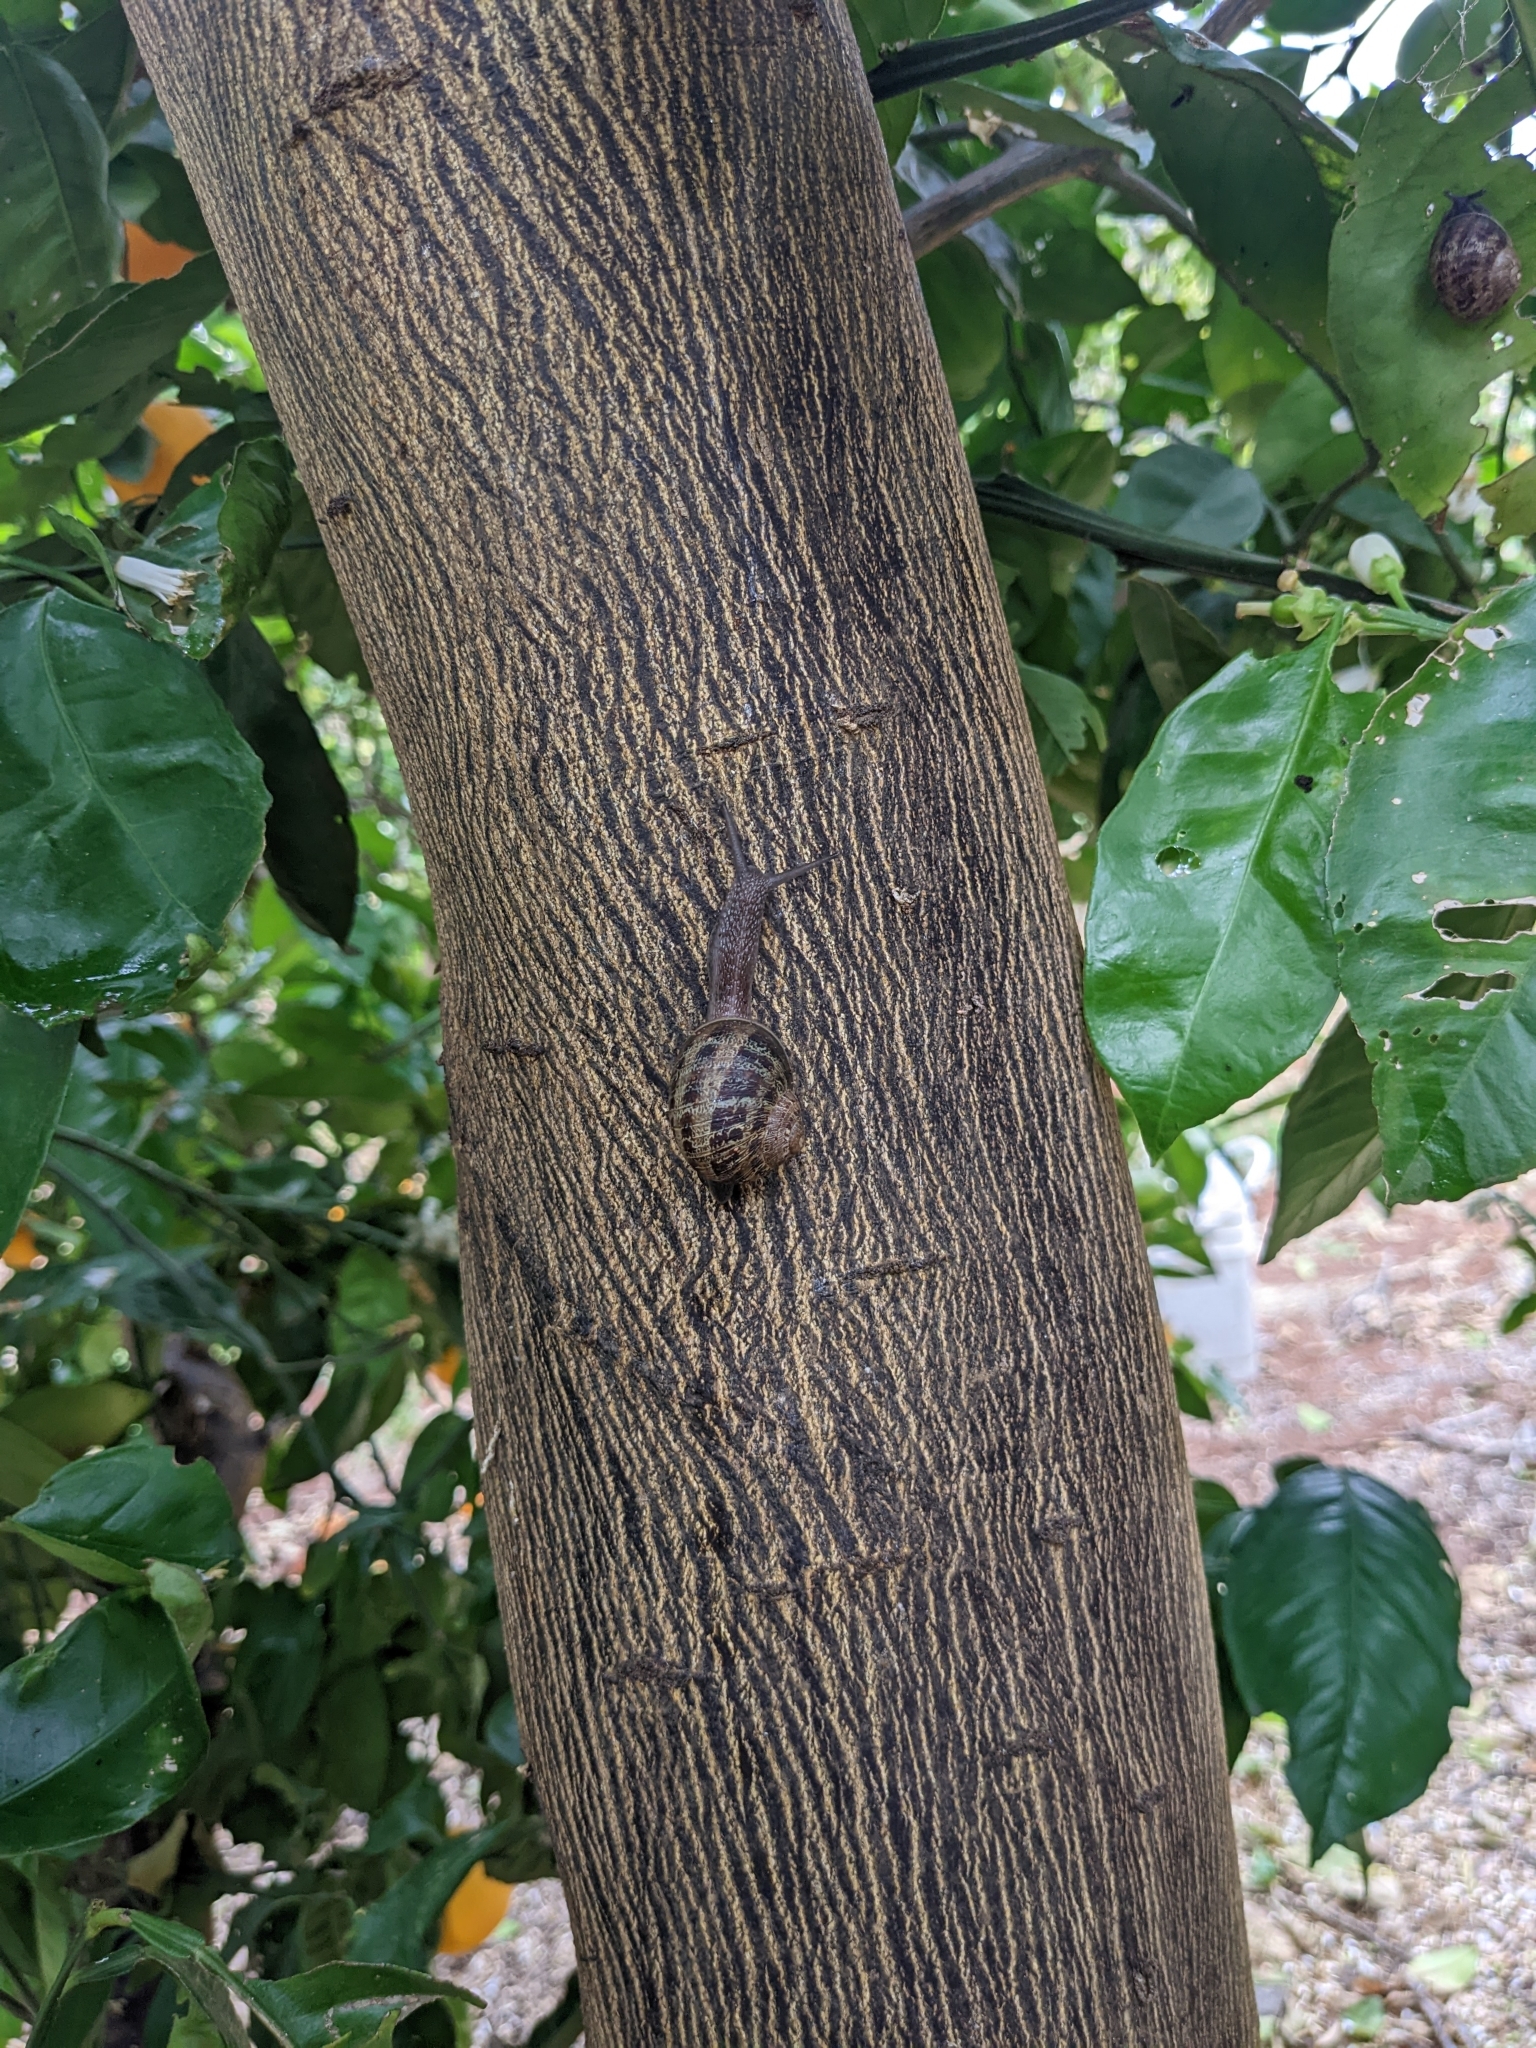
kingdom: Animalia
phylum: Mollusca
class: Gastropoda
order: Stylommatophora
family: Helicidae
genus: Cornu
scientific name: Cornu aspersum
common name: Brown garden snail
